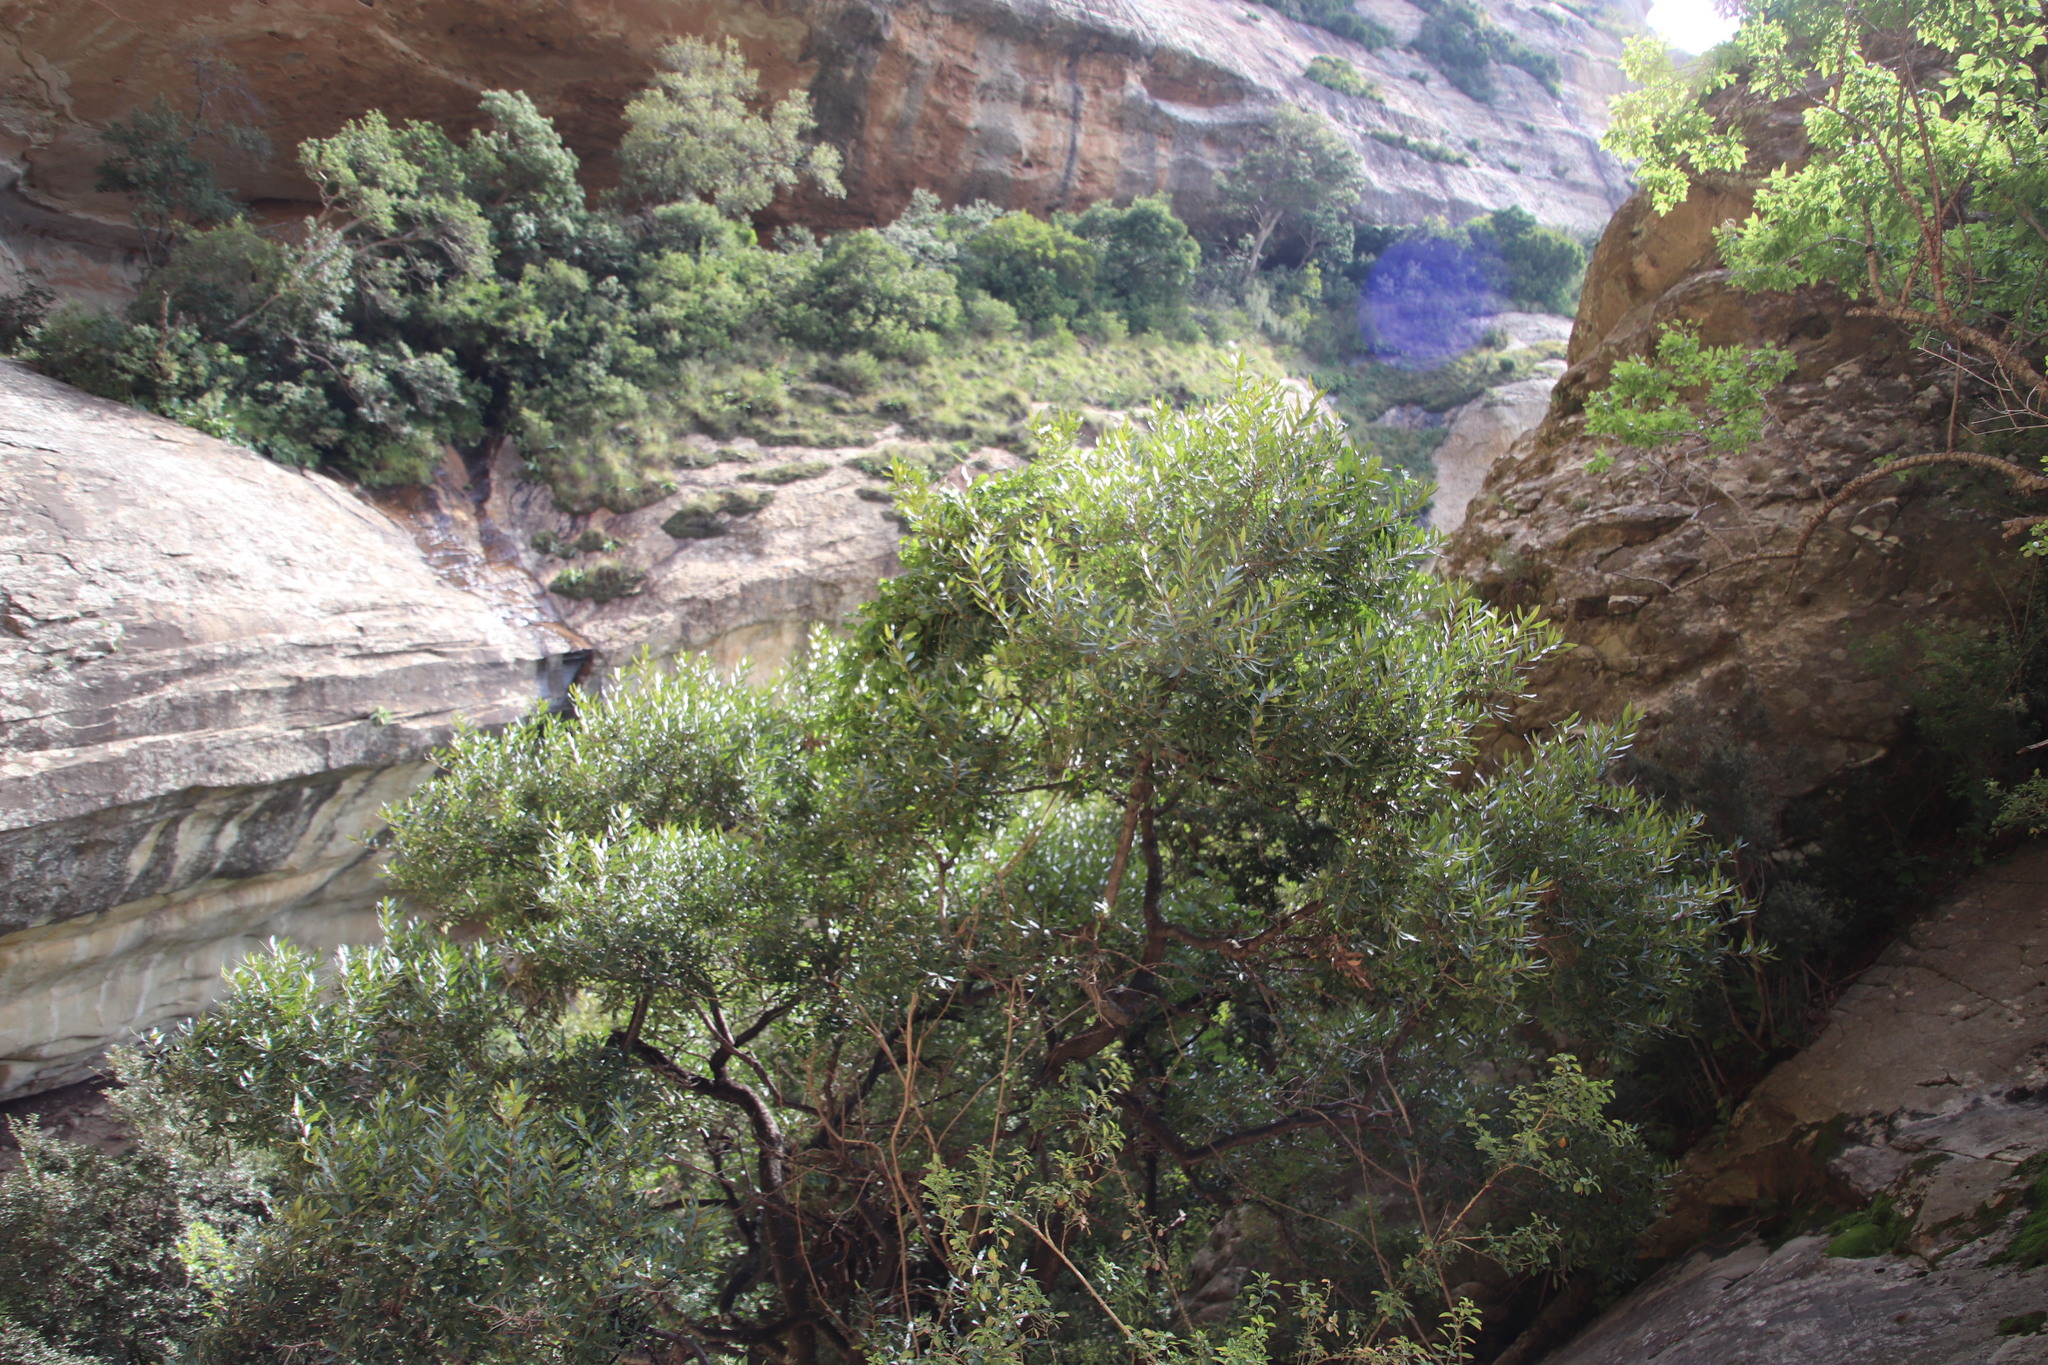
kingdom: Plantae
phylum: Tracheophyta
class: Magnoliopsida
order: Ericales
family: Ebenaceae
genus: Euclea
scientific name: Euclea crispa
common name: Blue guarri
